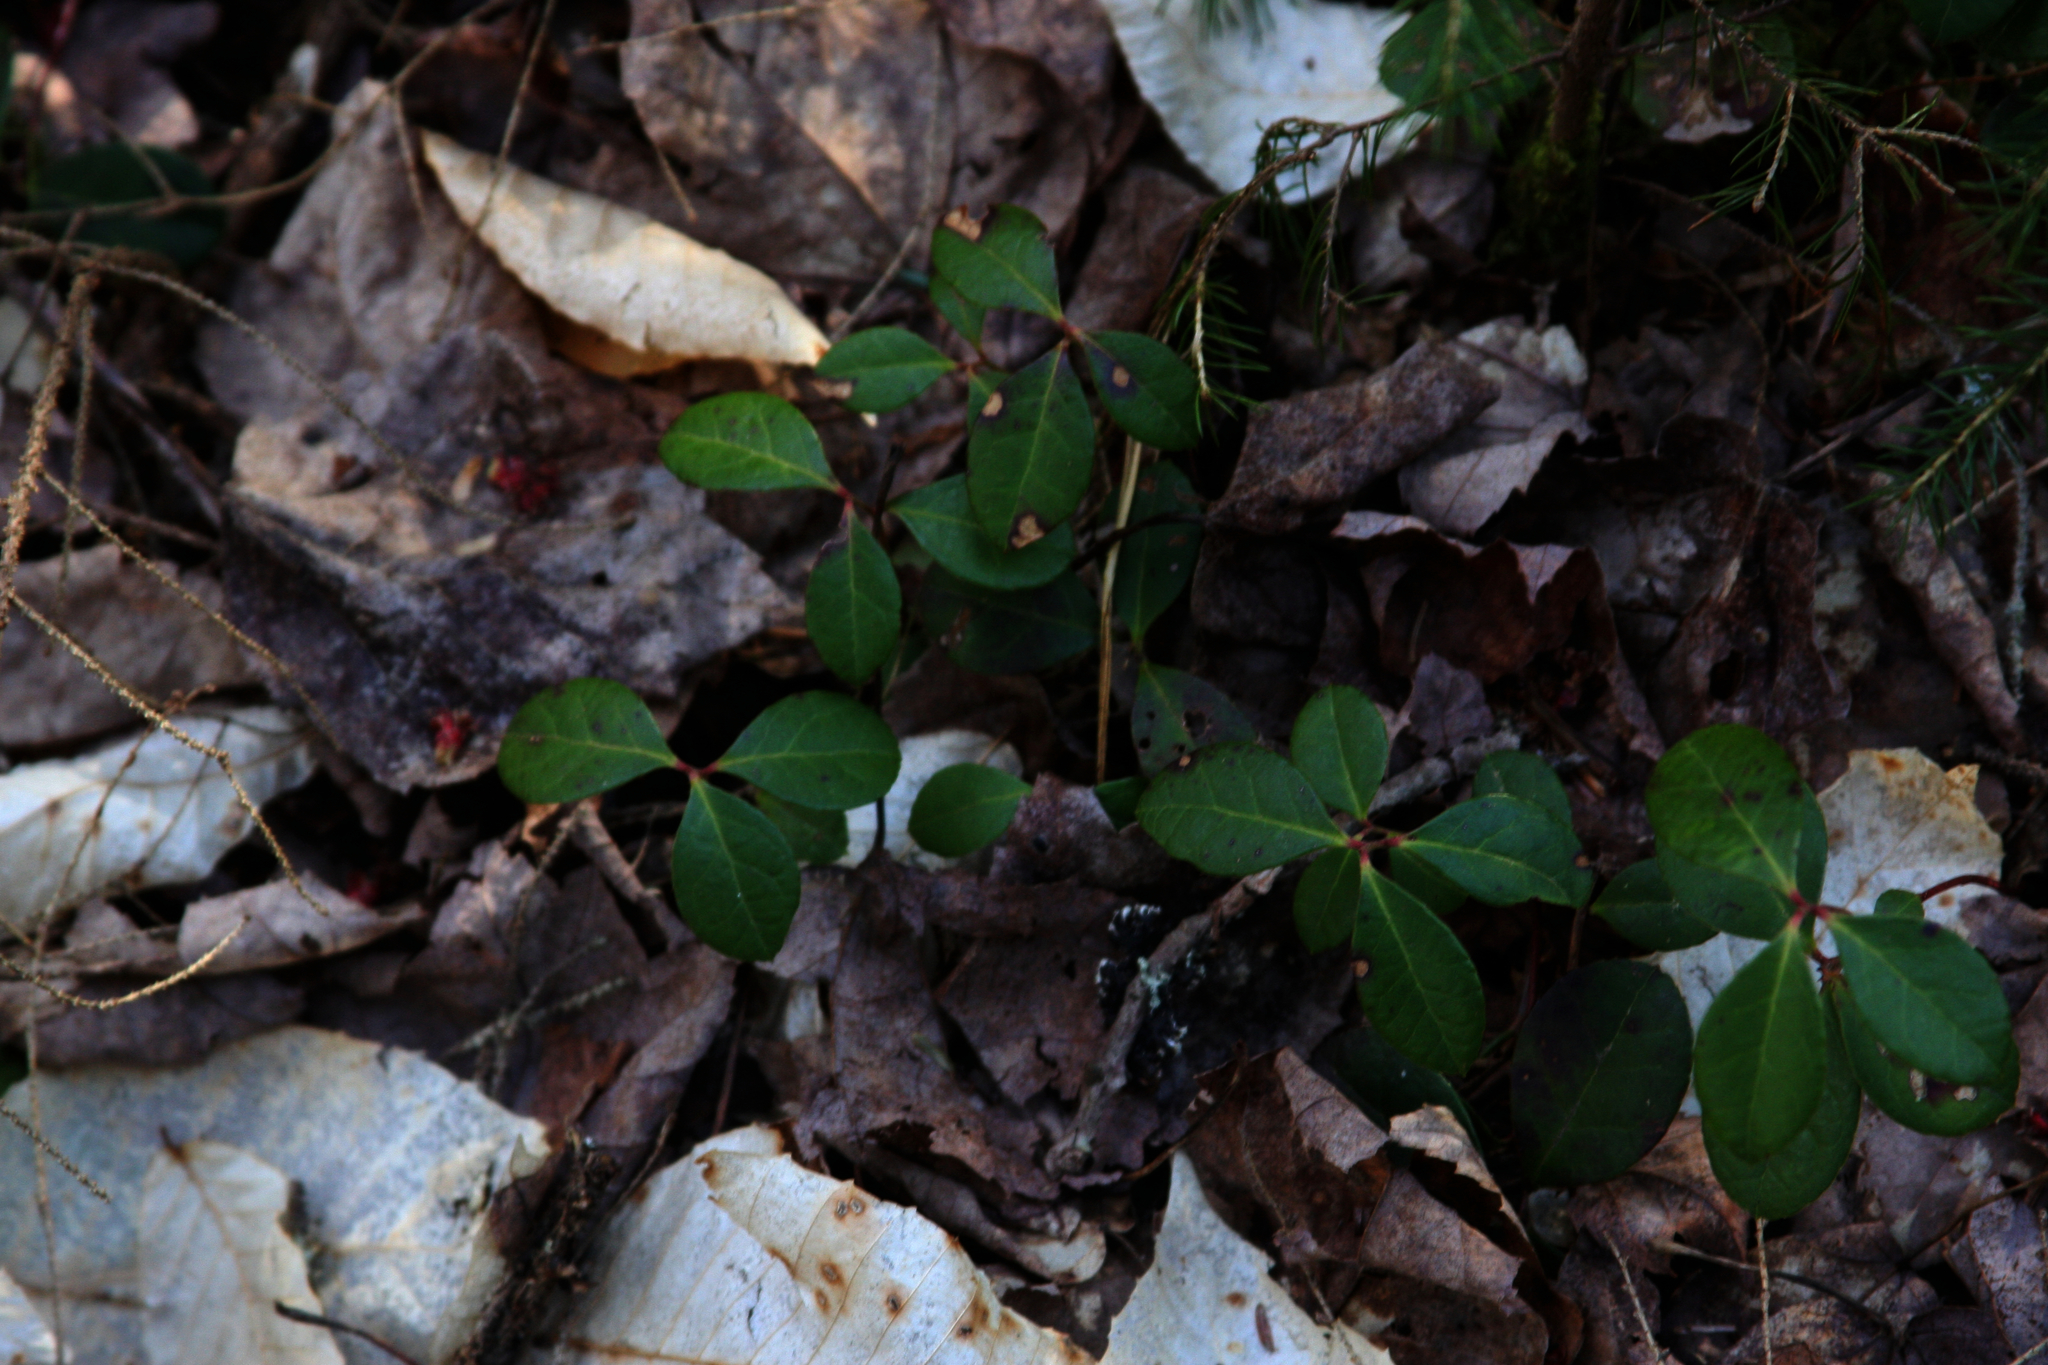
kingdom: Plantae
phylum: Tracheophyta
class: Magnoliopsida
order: Ericales
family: Ericaceae
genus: Gaultheria
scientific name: Gaultheria procumbens
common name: Checkerberry
